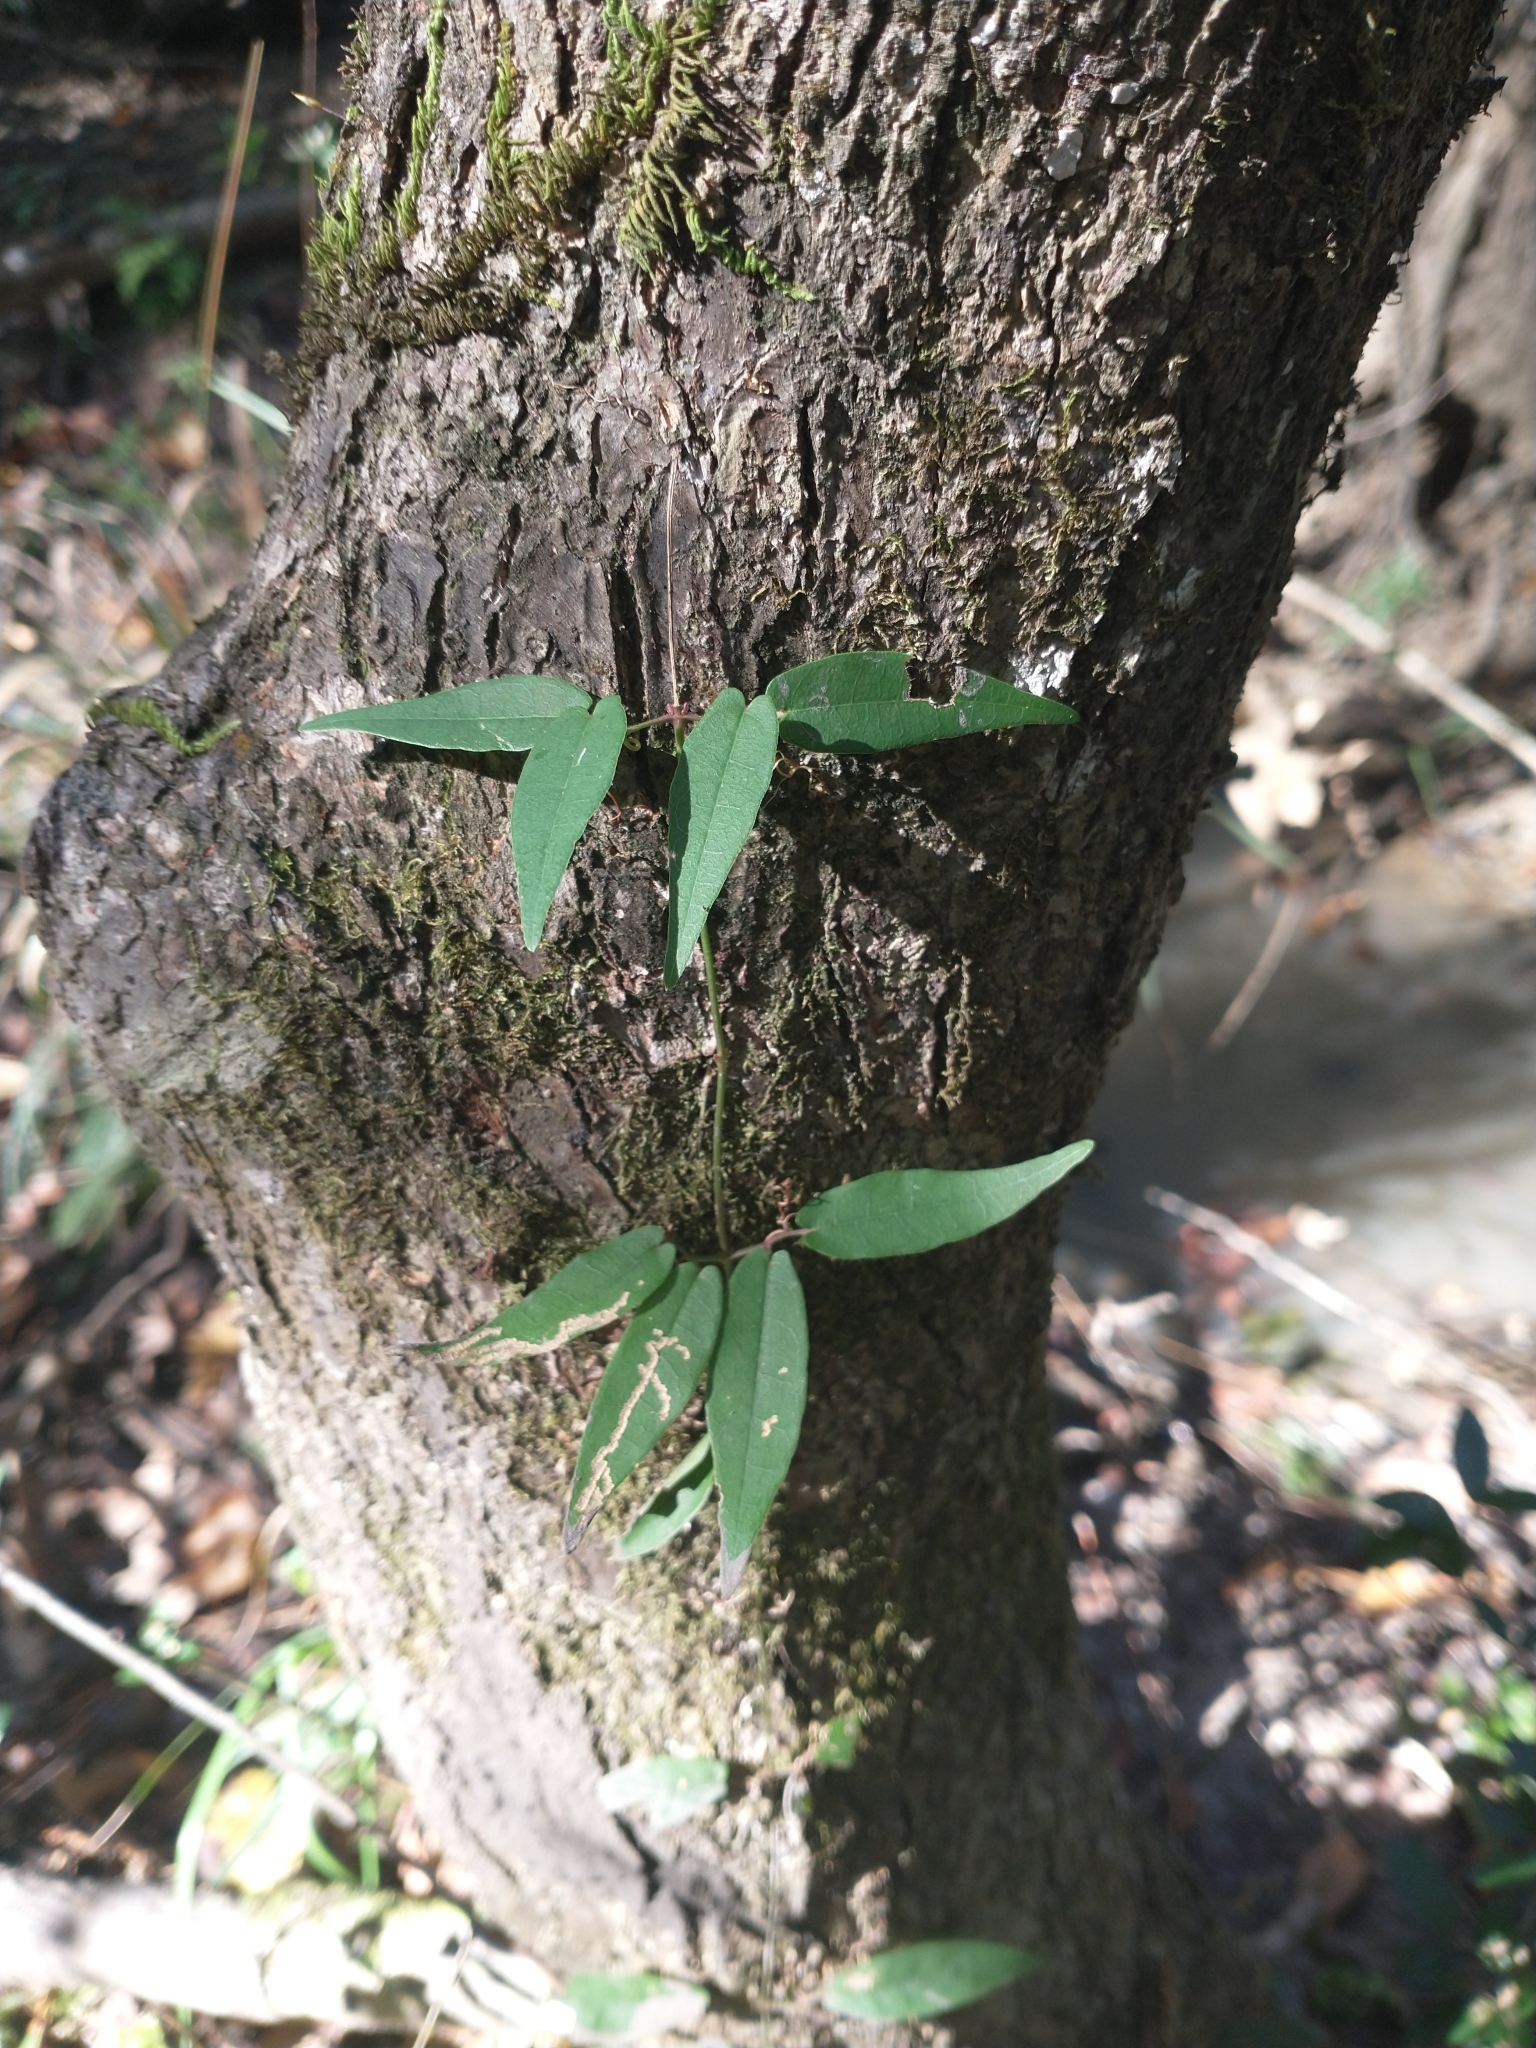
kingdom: Plantae
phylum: Tracheophyta
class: Magnoliopsida
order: Lamiales
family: Bignoniaceae
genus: Bignonia
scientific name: Bignonia capreolata
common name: Crossvine
